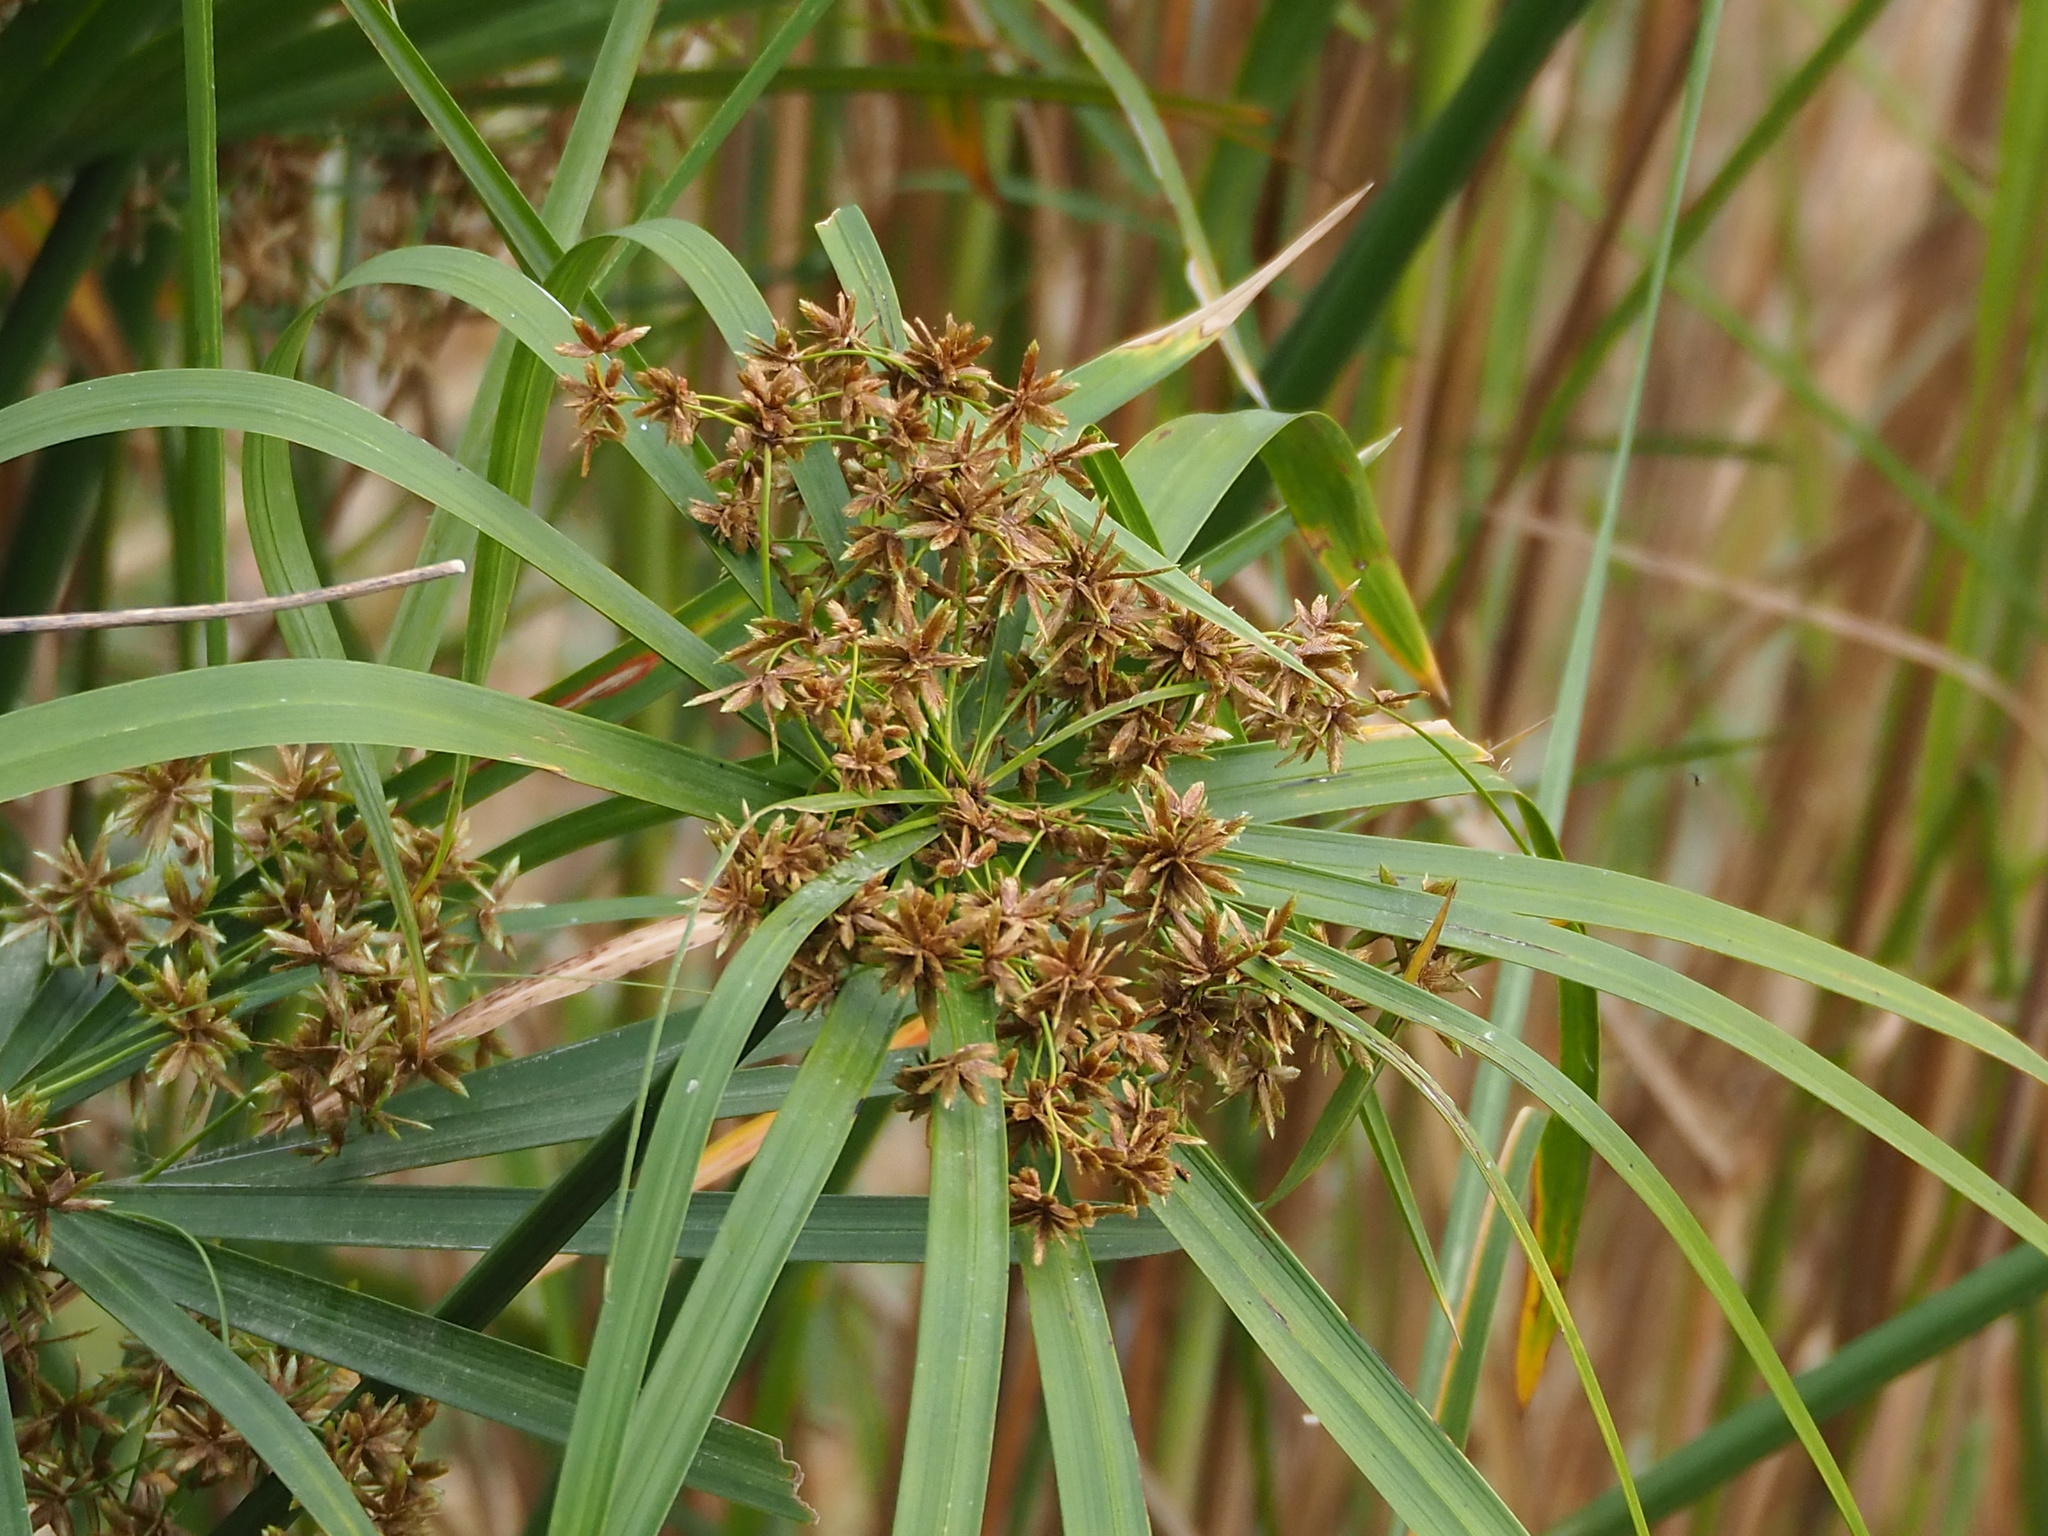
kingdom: Plantae
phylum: Tracheophyta
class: Liliopsida
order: Poales
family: Cyperaceae
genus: Cyperus
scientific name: Cyperus alternifolius
